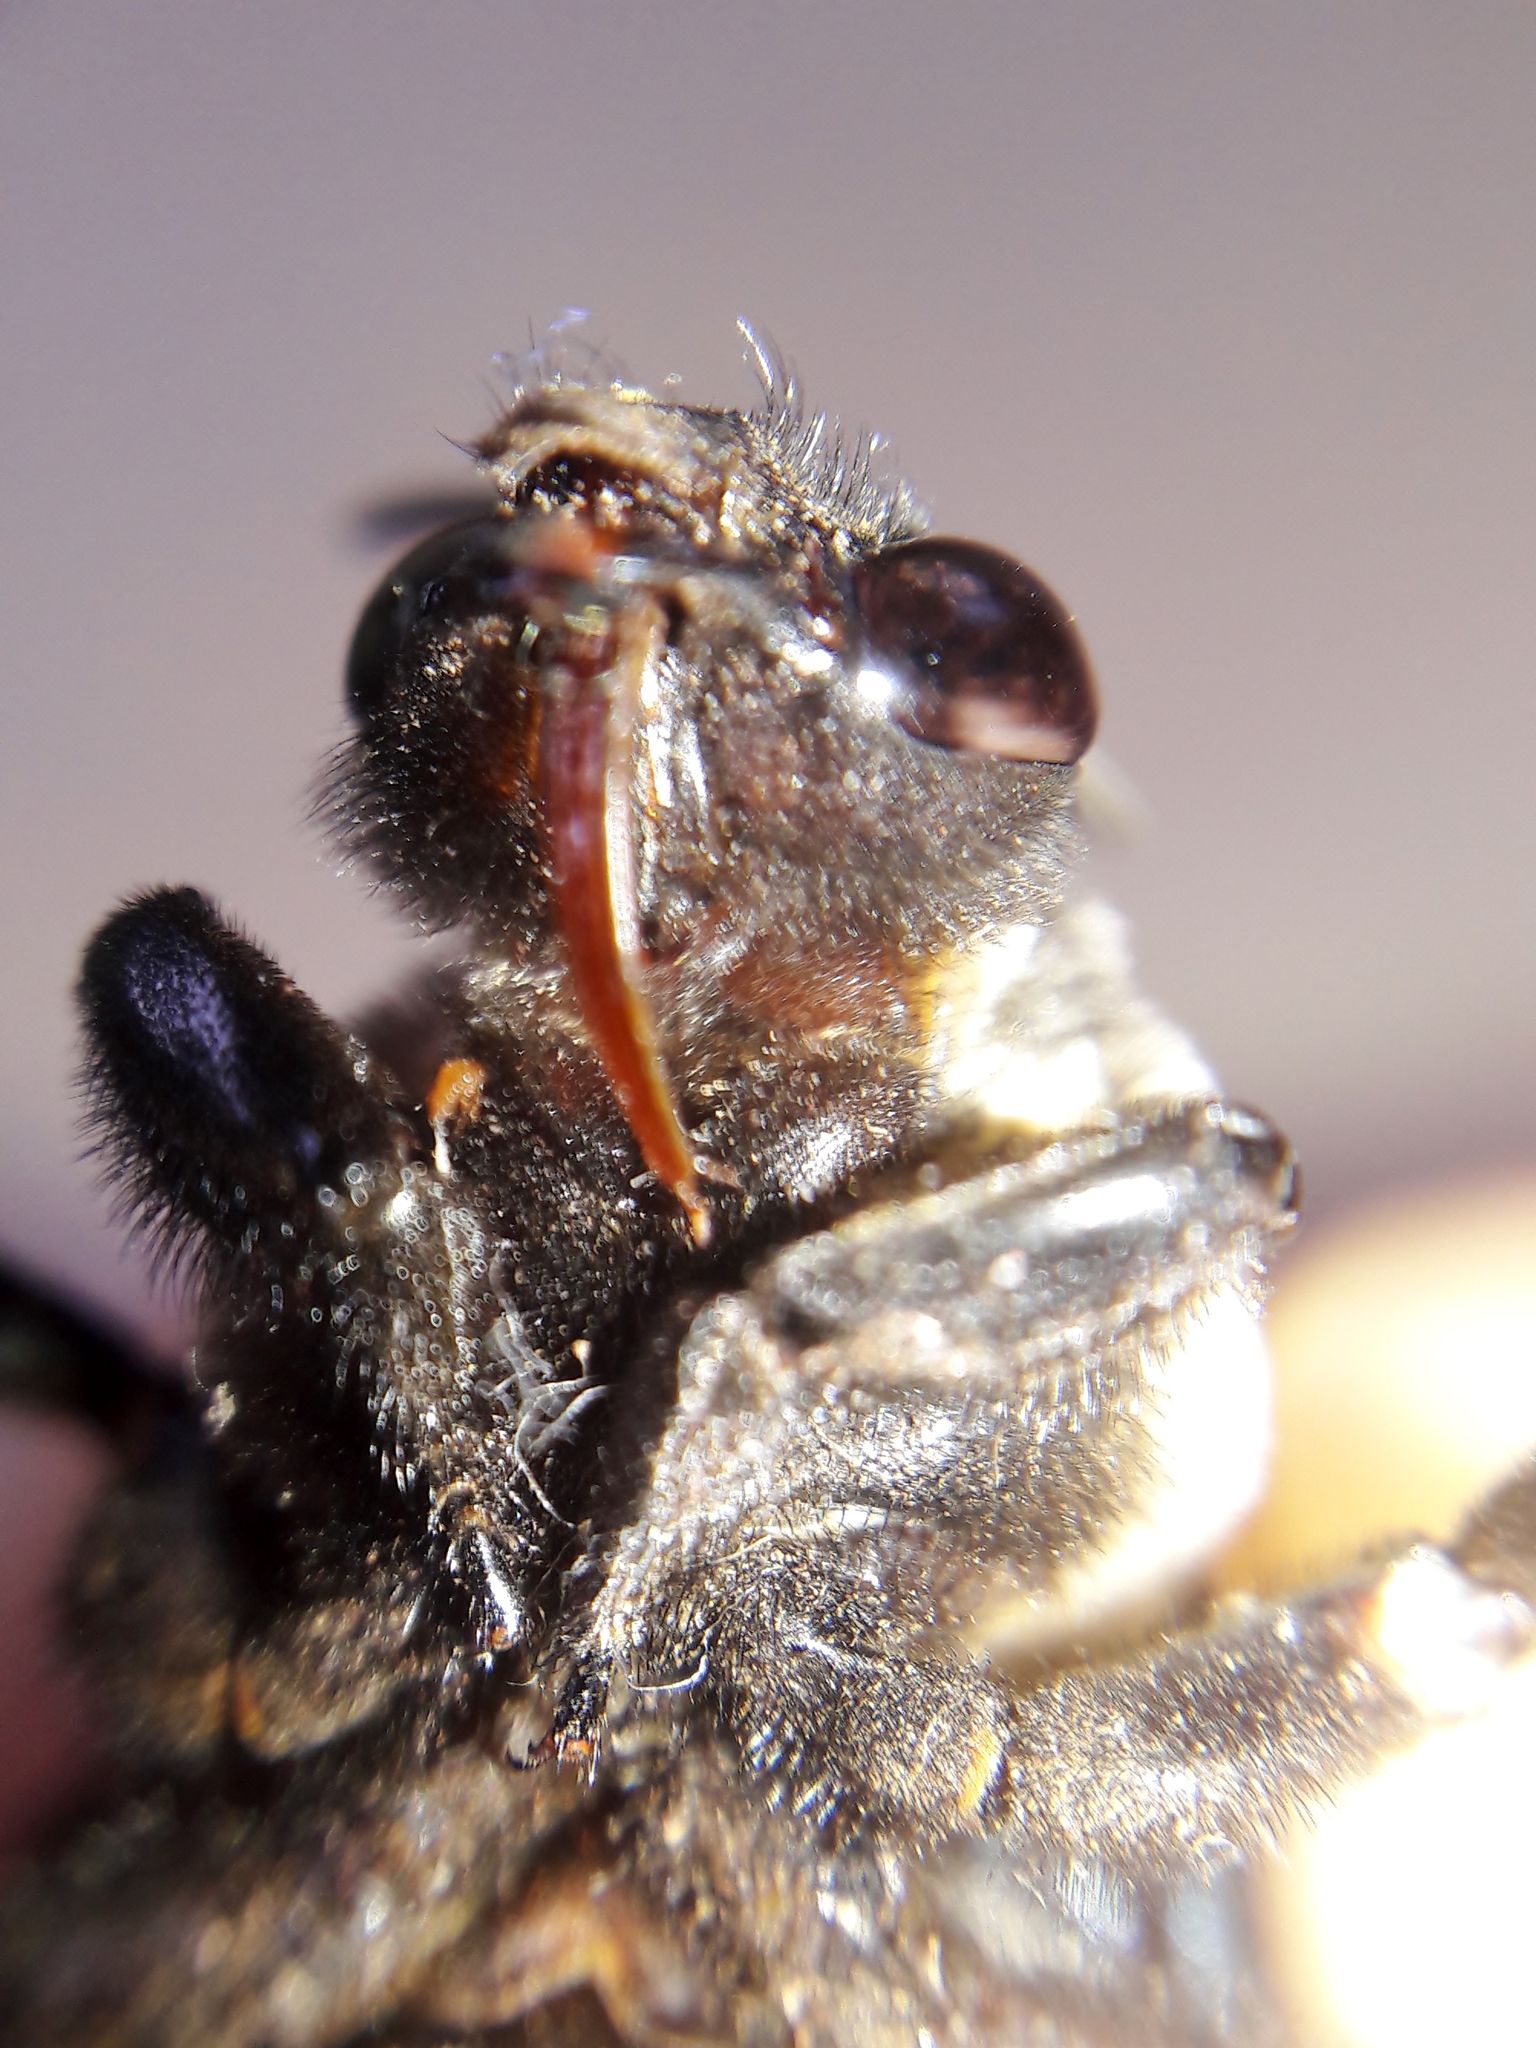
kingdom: Animalia
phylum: Arthropoda
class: Insecta
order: Hymenoptera
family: Apidae
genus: Epicharis
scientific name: Epicharis flava
